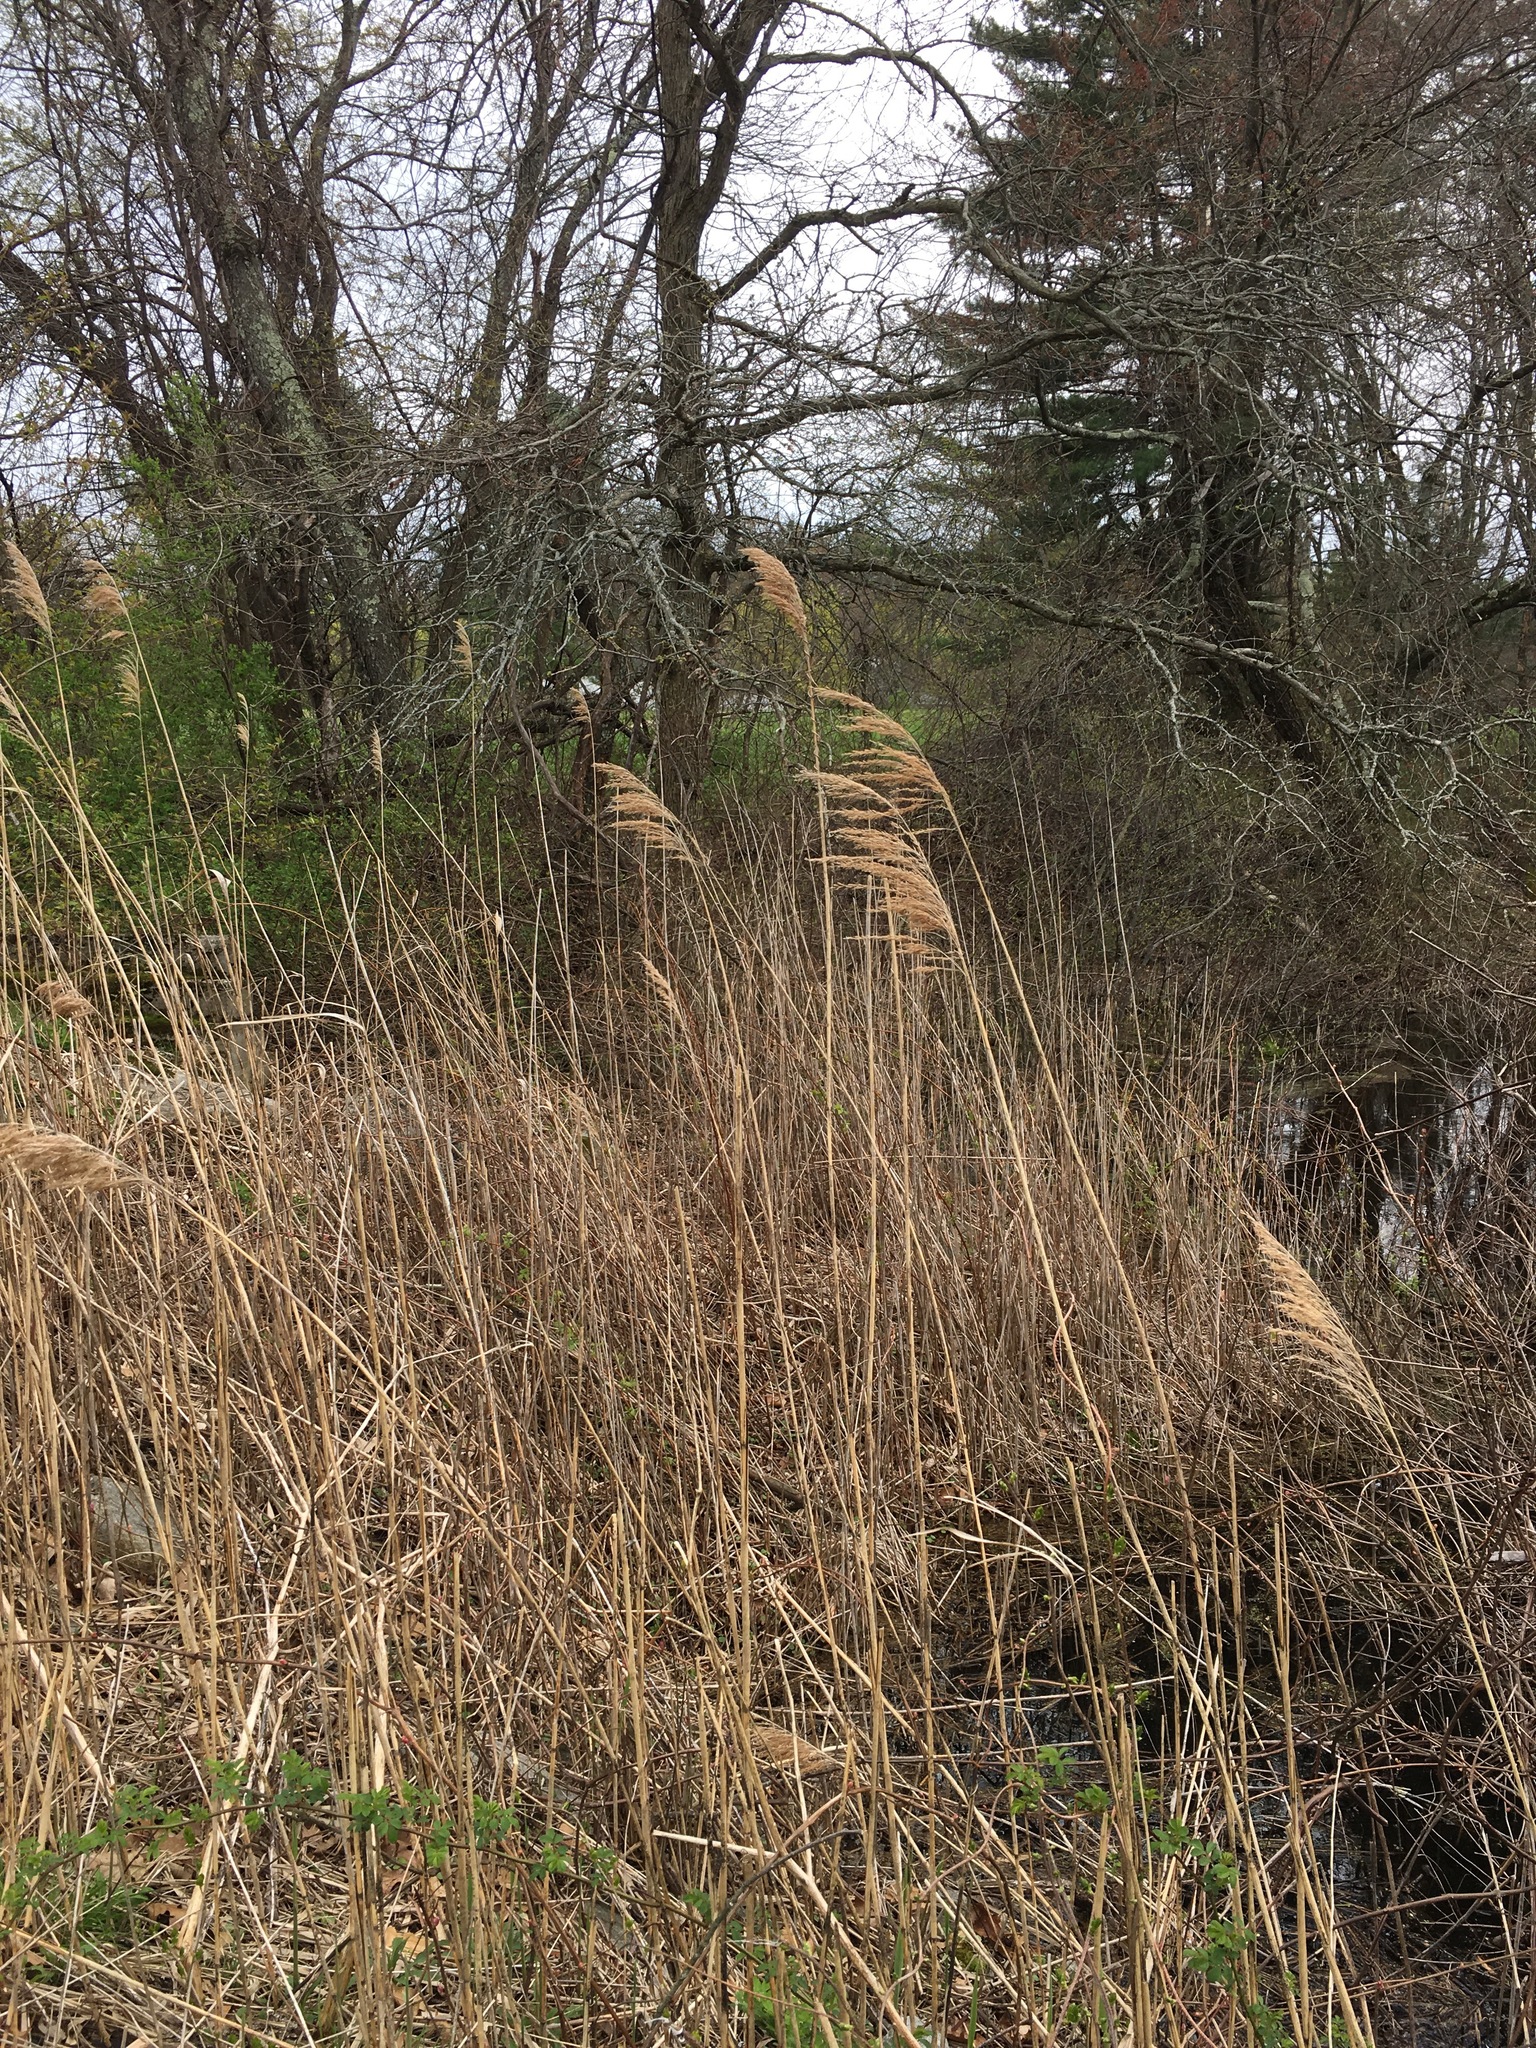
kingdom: Plantae
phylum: Tracheophyta
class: Liliopsida
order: Poales
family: Poaceae
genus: Phragmites
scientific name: Phragmites australis
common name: Common reed
